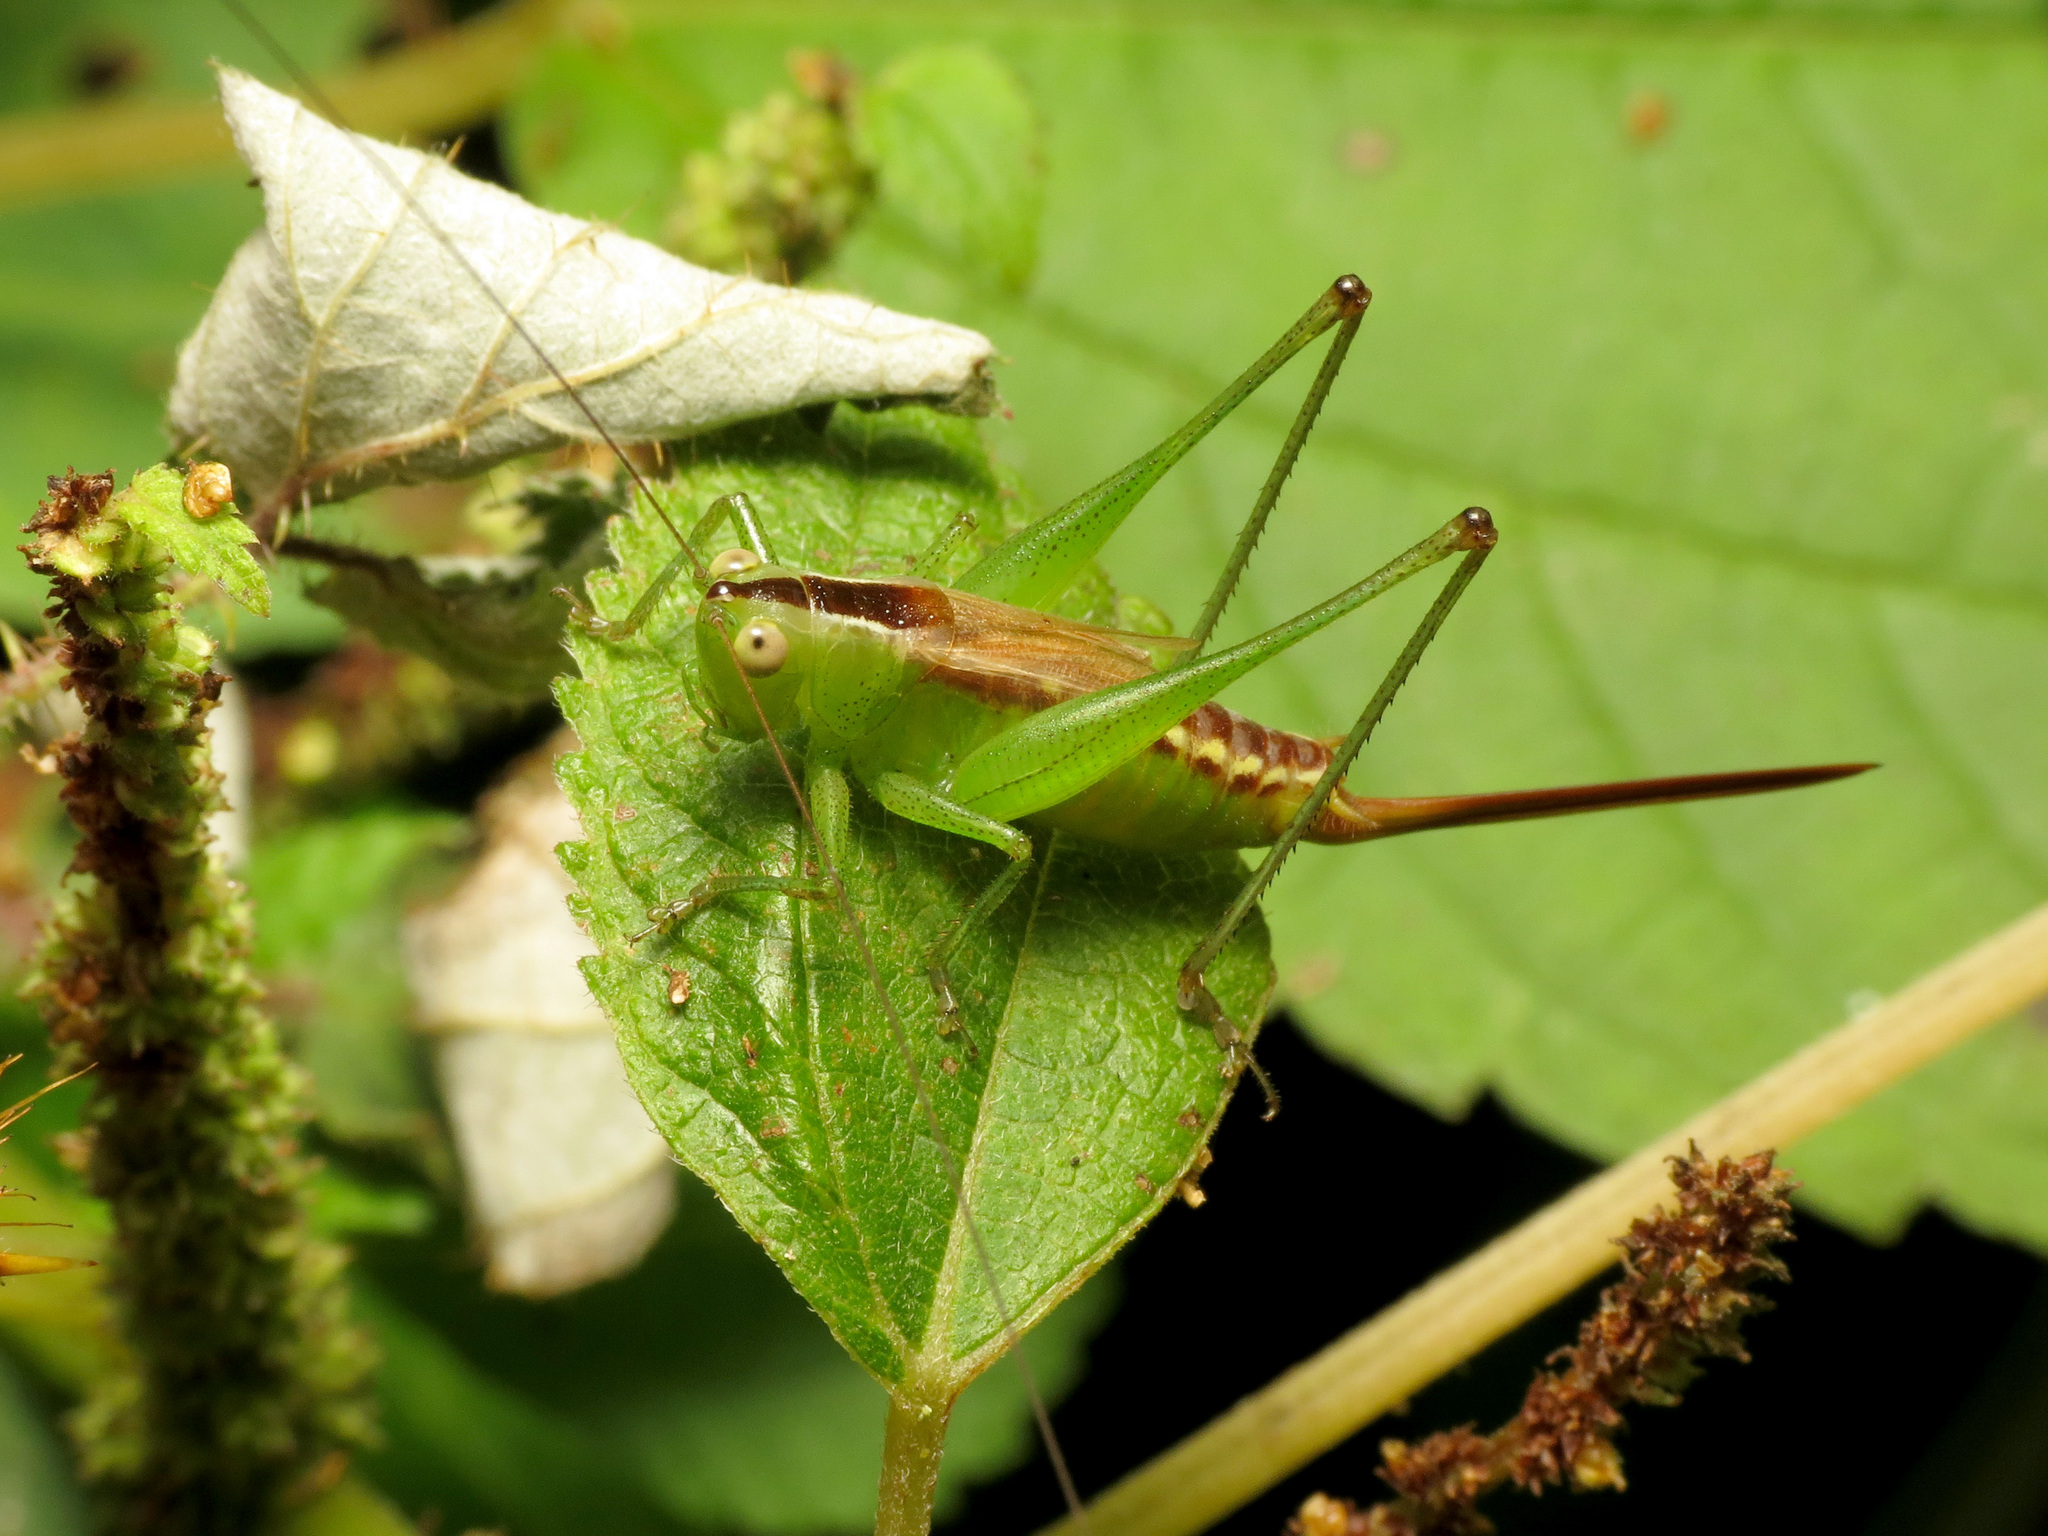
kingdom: Animalia
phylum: Arthropoda
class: Insecta
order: Orthoptera
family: Tettigoniidae
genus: Conocephalus
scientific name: Conocephalus brevipennis
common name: Short-winged meadow katydid
